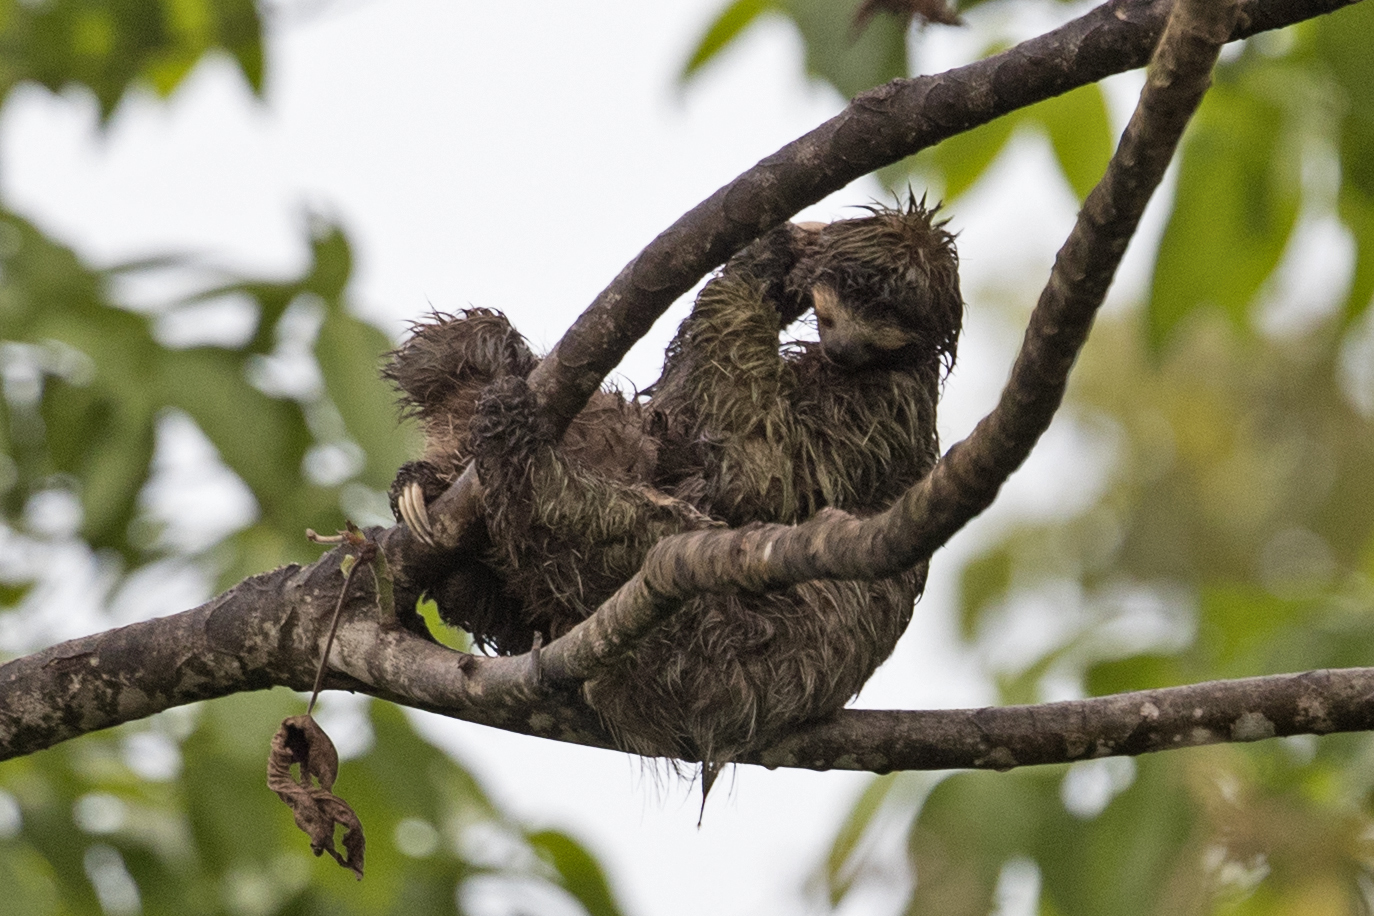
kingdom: Animalia
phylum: Chordata
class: Mammalia
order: Pilosa
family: Bradypodidae
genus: Bradypus
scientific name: Bradypus variegatus
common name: Brown-throated three-toed sloth
